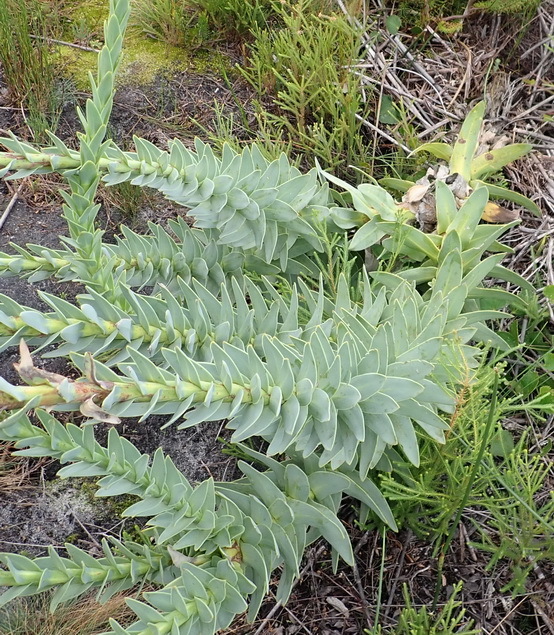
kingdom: Plantae
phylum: Tracheophyta
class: Magnoliopsida
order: Asterales
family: Asteraceae
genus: Osteospermum
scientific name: Osteospermum corymbosum
